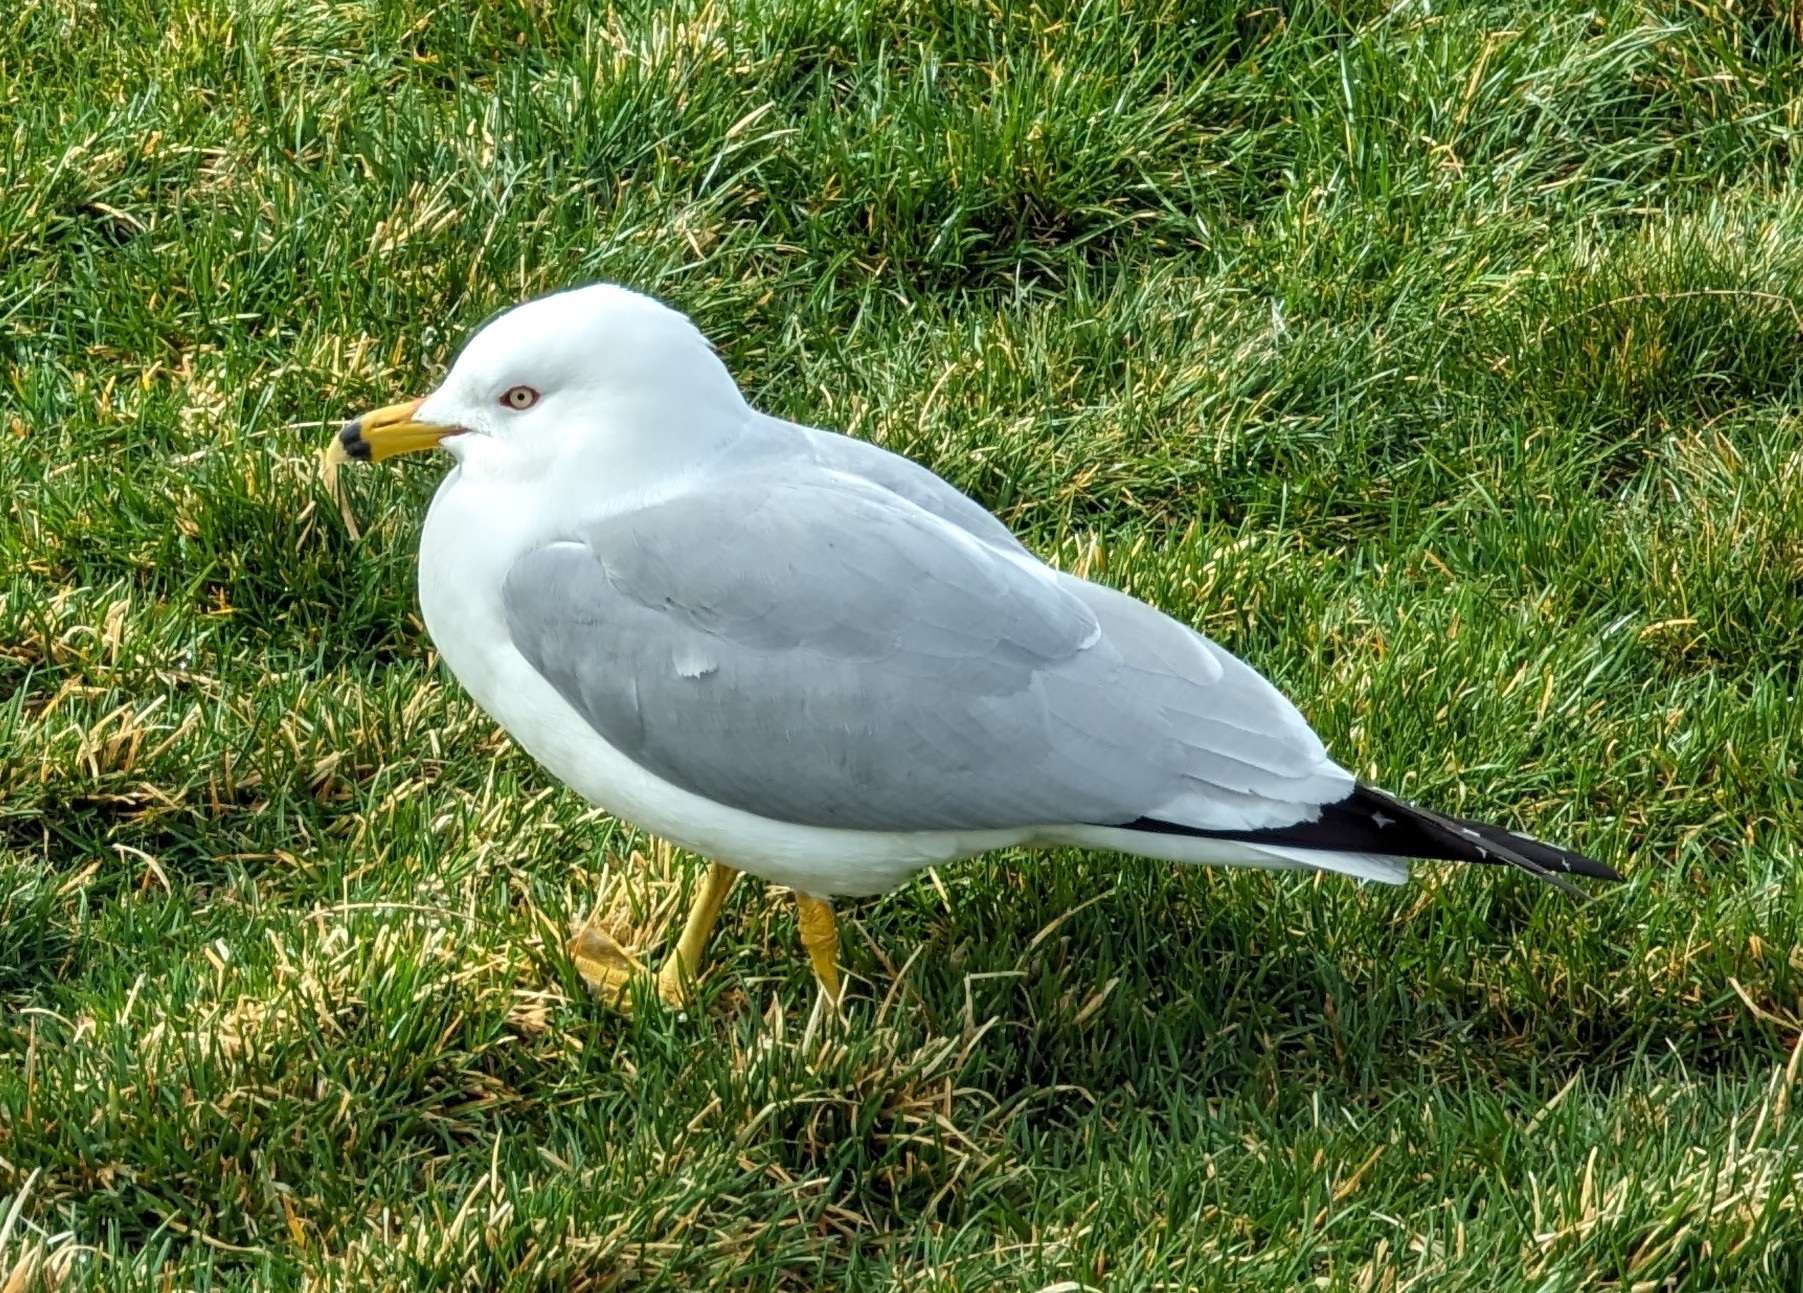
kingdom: Animalia
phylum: Chordata
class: Aves
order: Charadriiformes
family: Laridae
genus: Larus
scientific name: Larus delawarensis
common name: Ring-billed gull
